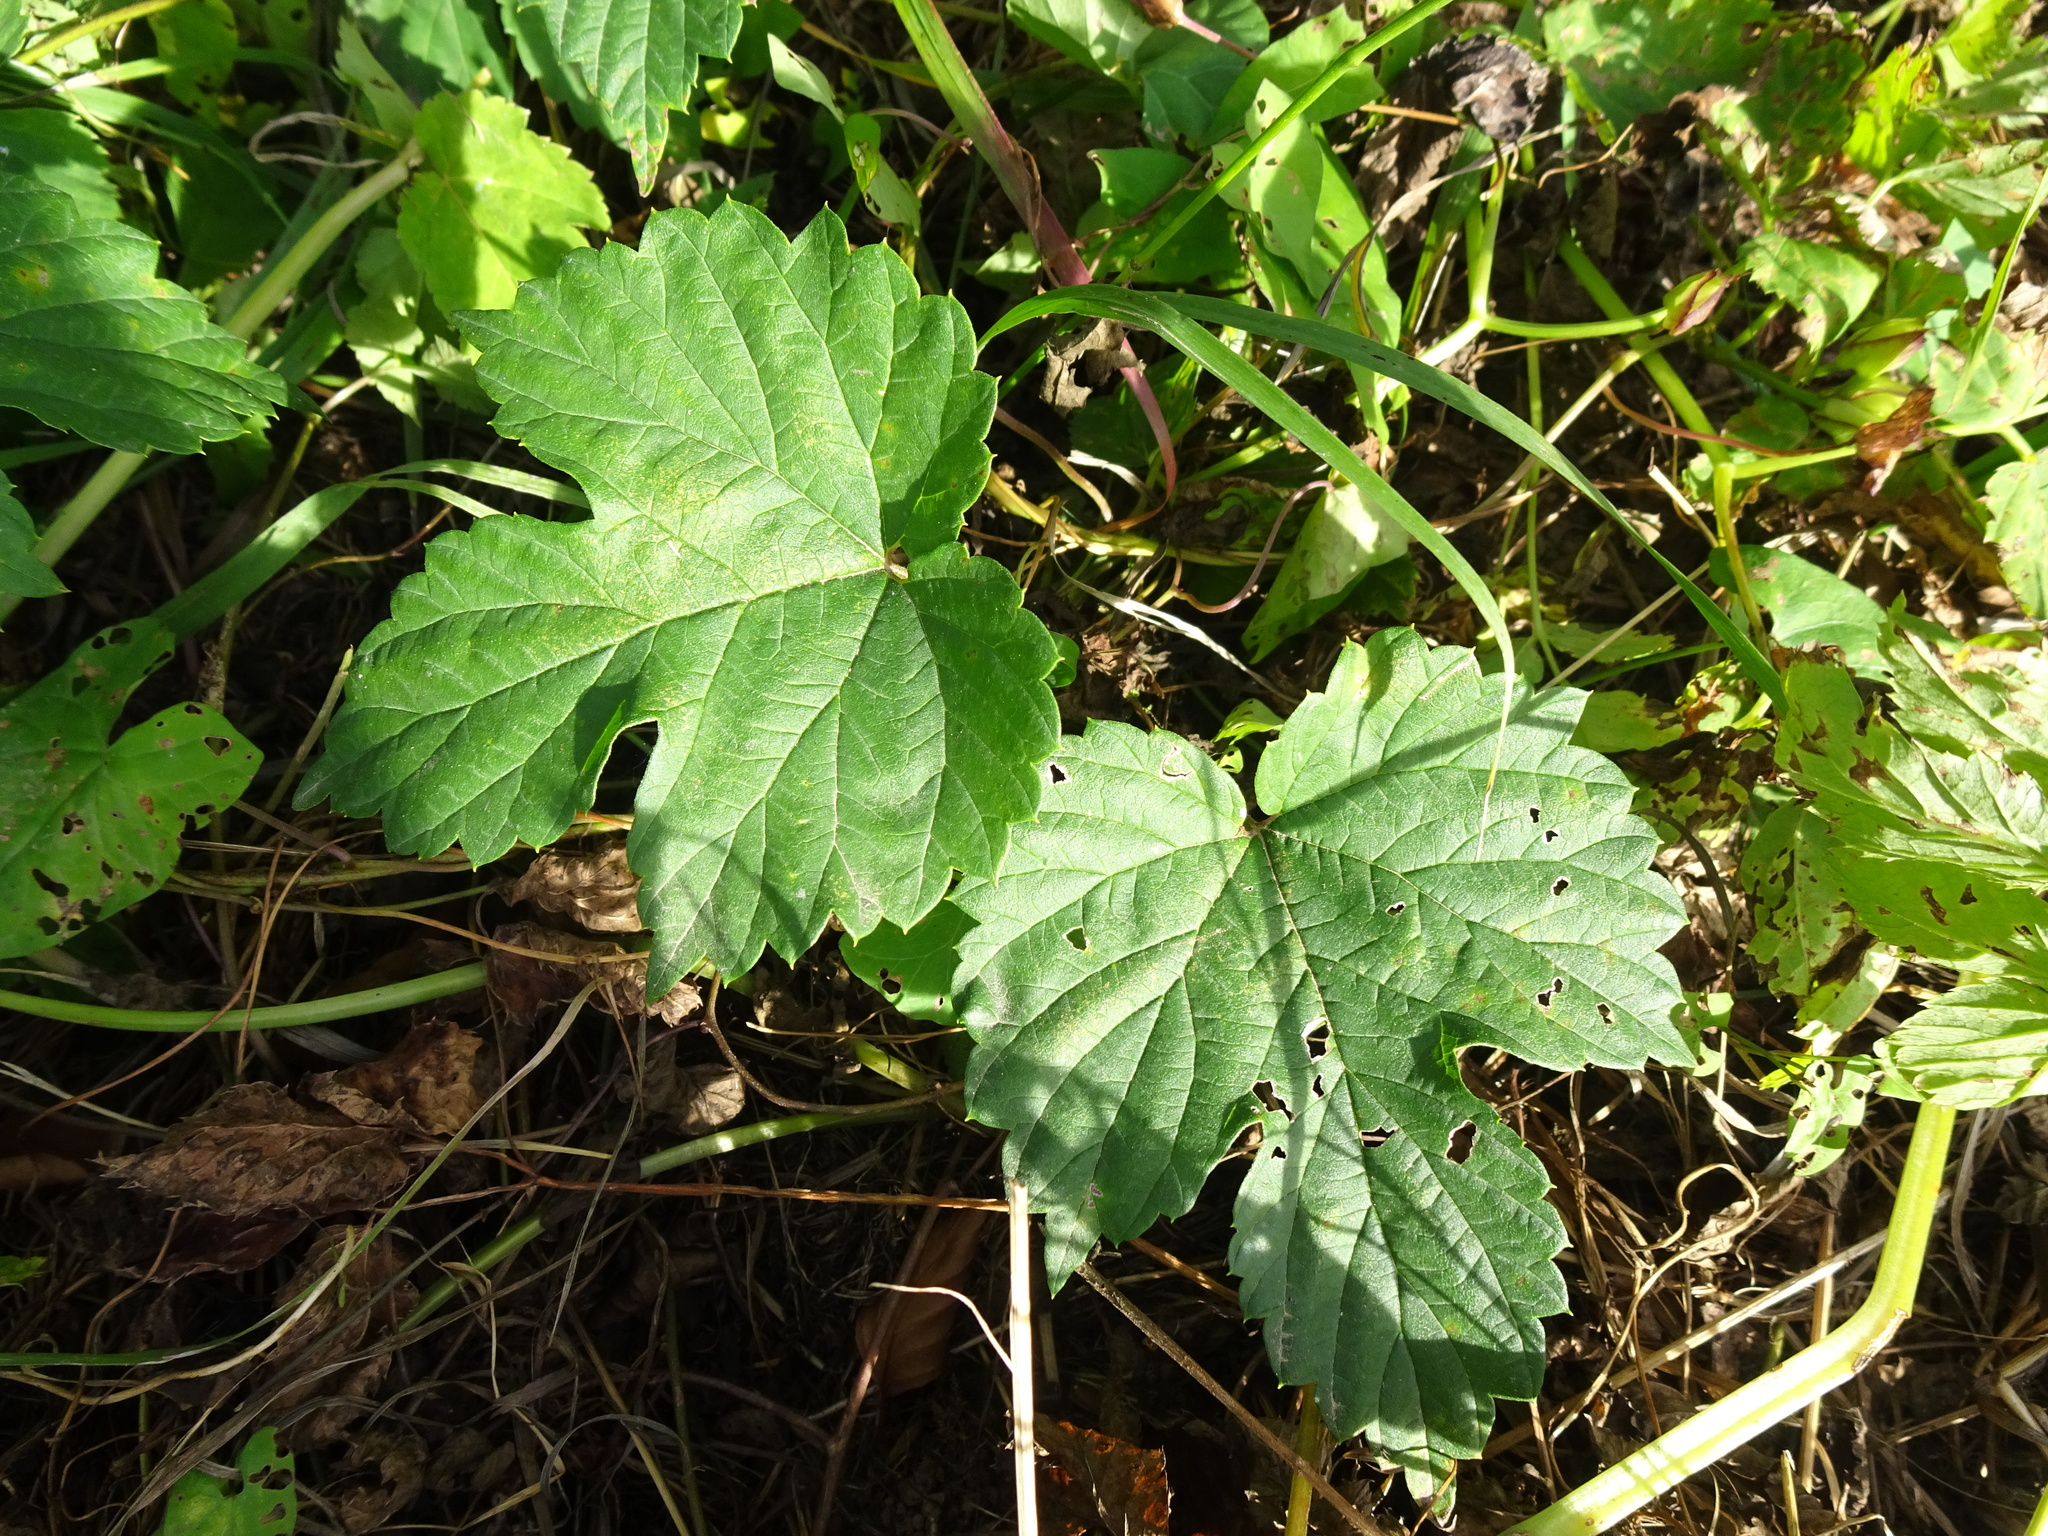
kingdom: Plantae
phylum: Tracheophyta
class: Magnoliopsida
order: Rosales
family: Cannabaceae
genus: Humulus
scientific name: Humulus lupulus
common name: Hop
